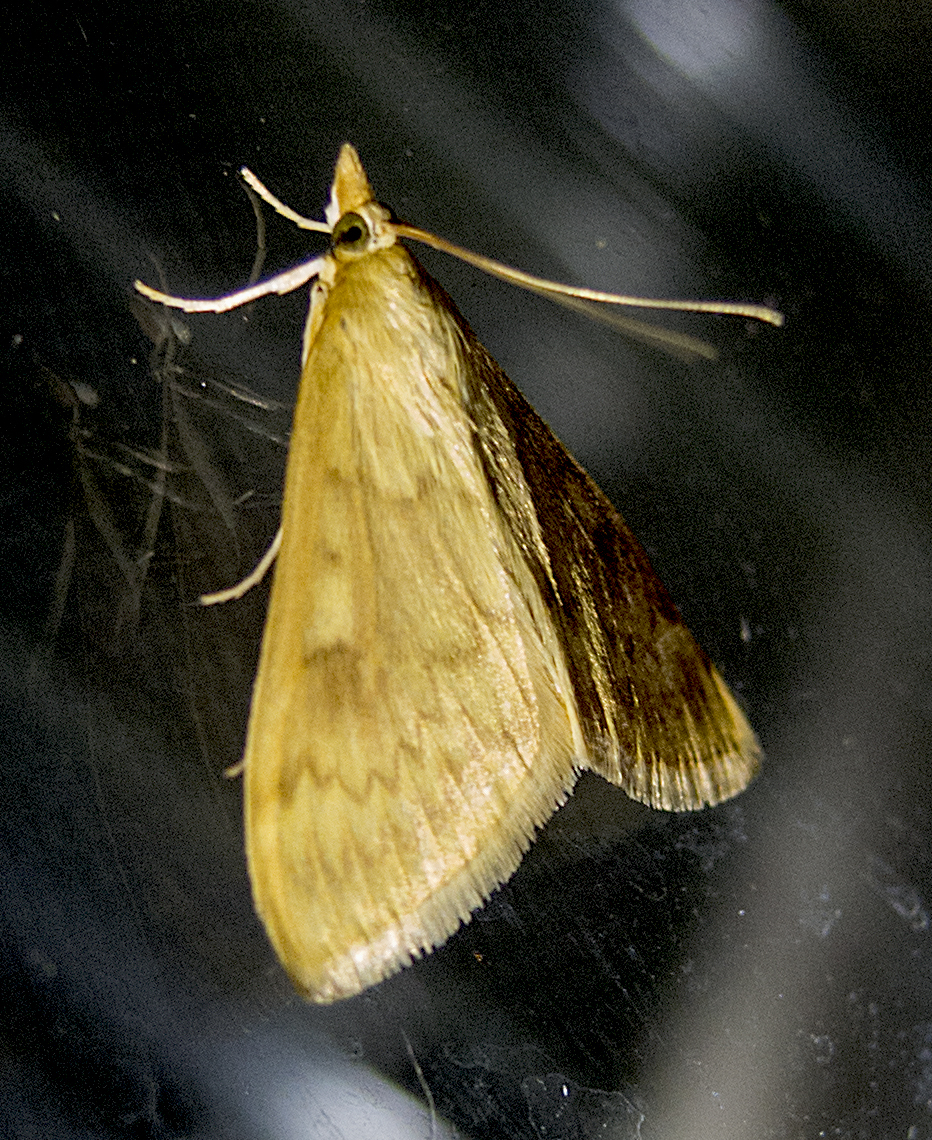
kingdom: Animalia
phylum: Arthropoda
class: Insecta
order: Lepidoptera
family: Crambidae
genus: Ostrinia
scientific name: Ostrinia nubilalis
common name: European corn borer
